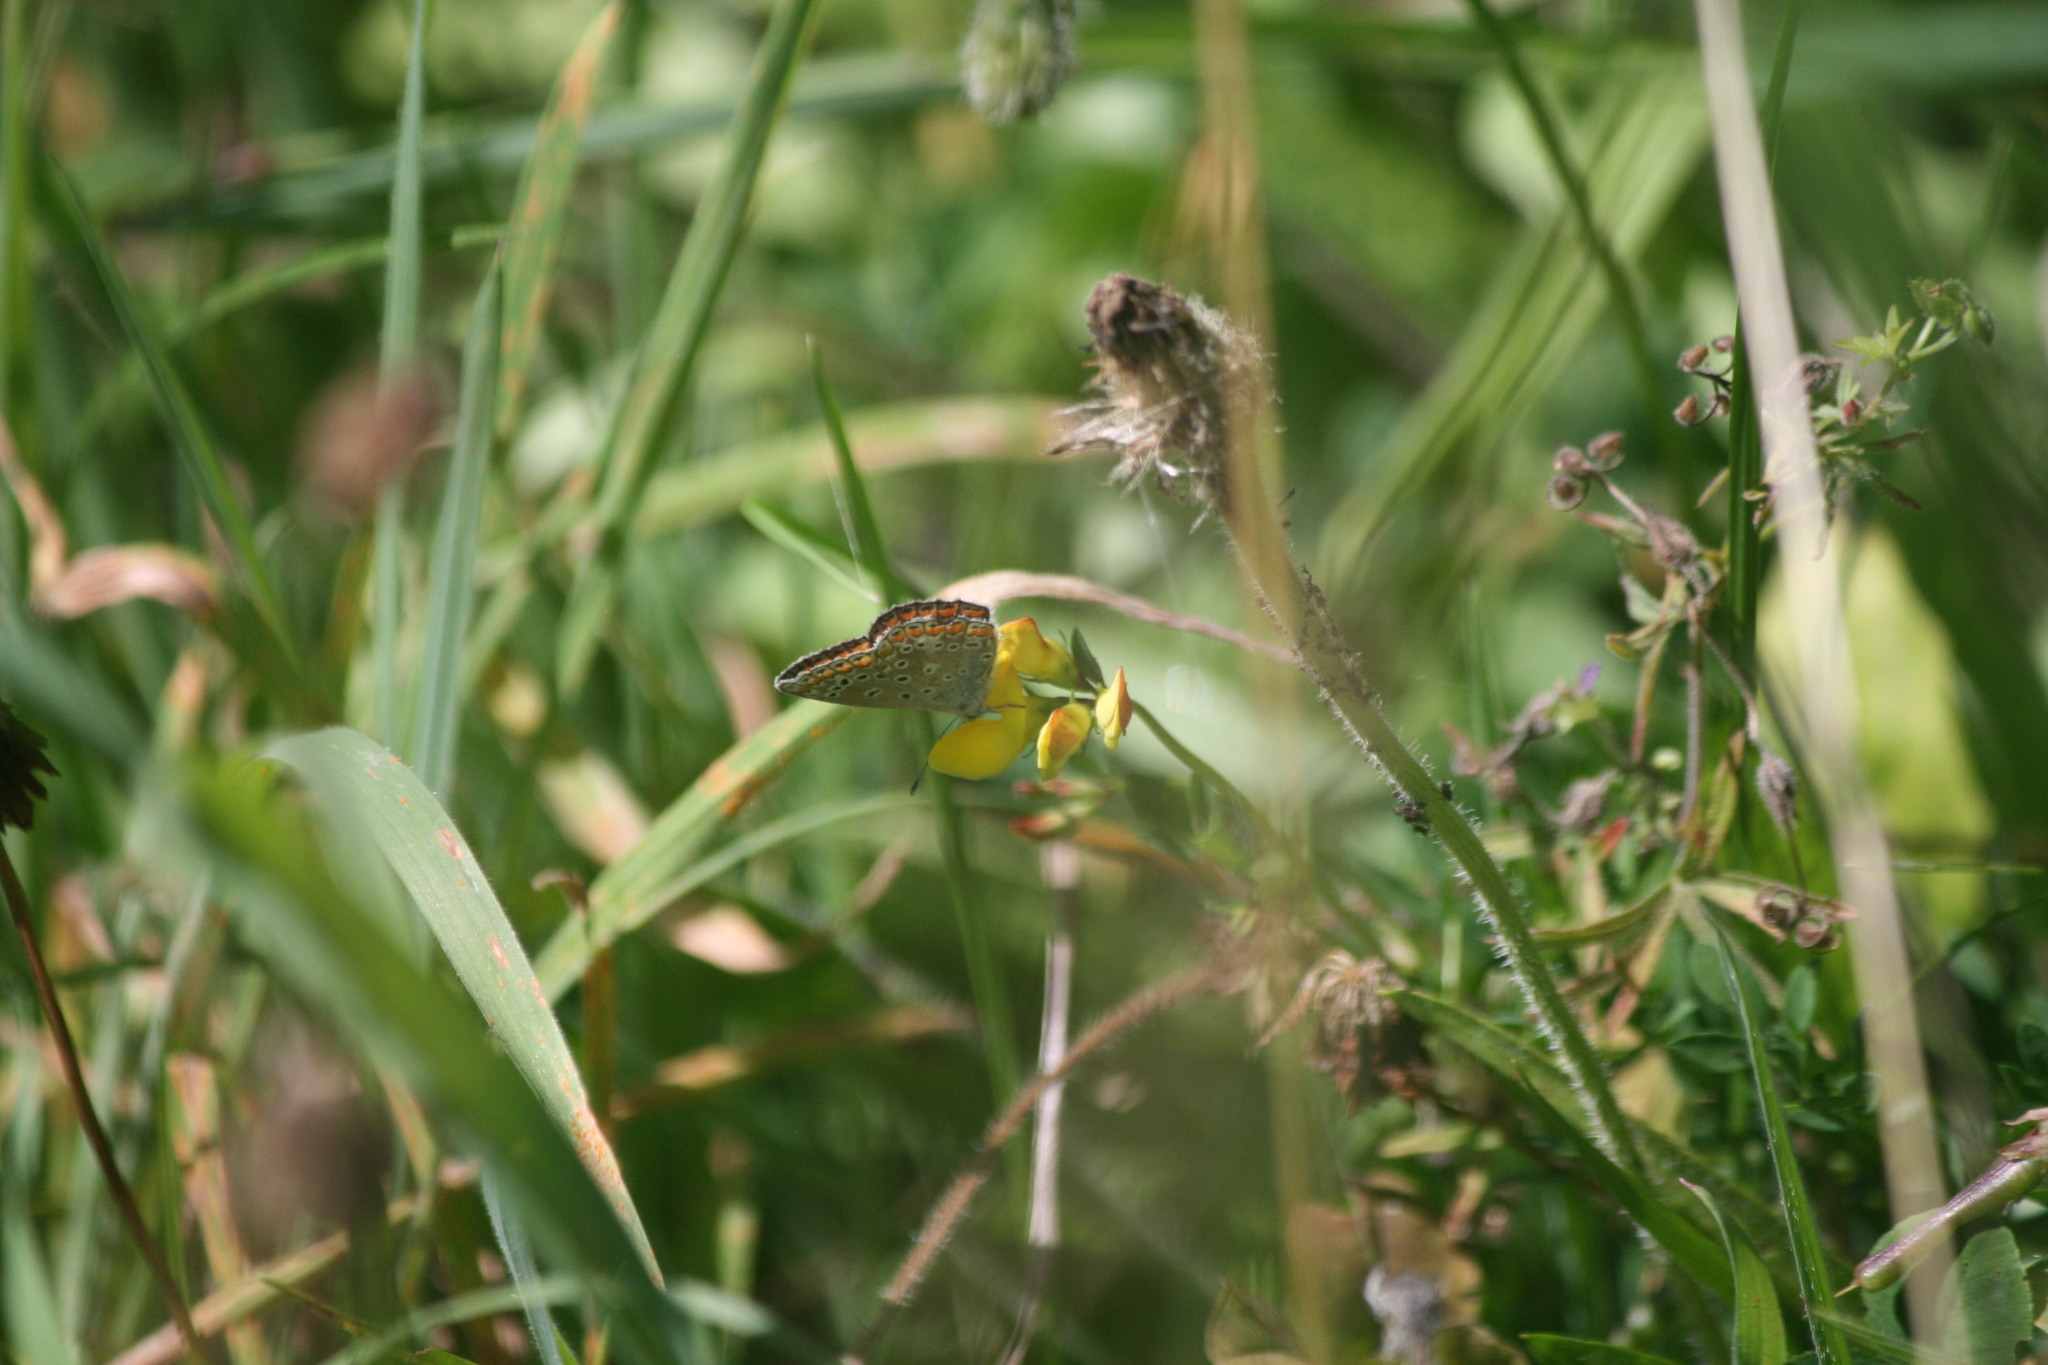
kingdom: Animalia
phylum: Arthropoda
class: Insecta
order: Lepidoptera
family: Lycaenidae
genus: Polyommatus
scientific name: Polyommatus icarus
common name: Common blue
